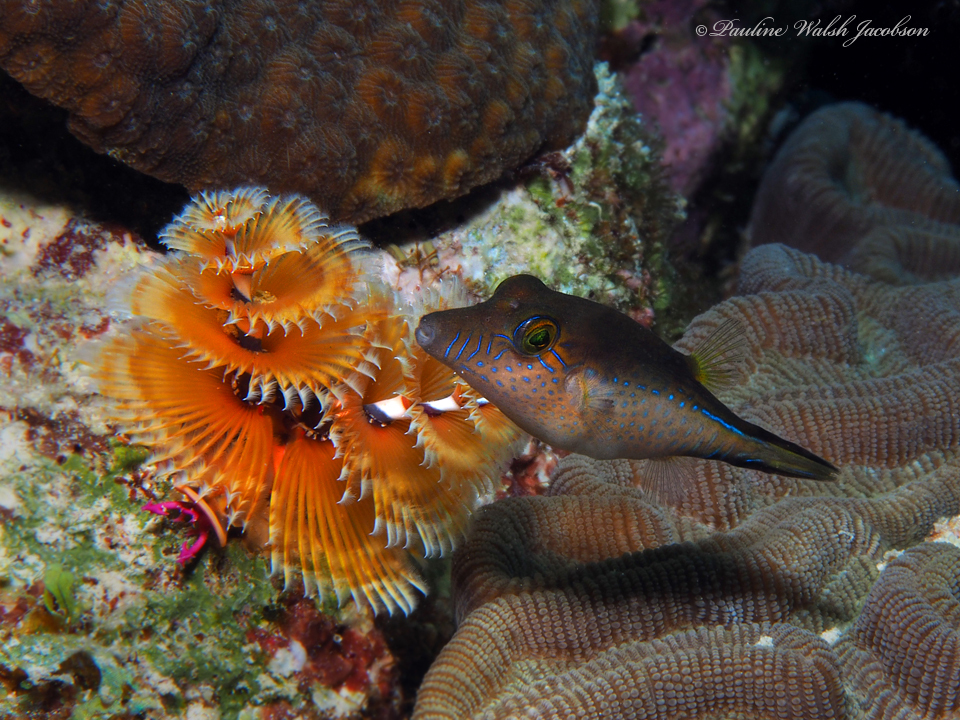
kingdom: Animalia
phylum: Chordata
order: Tetraodontiformes
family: Tetraodontidae
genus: Canthigaster
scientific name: Canthigaster rostrata
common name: Caribbean sharpnose-puffer
